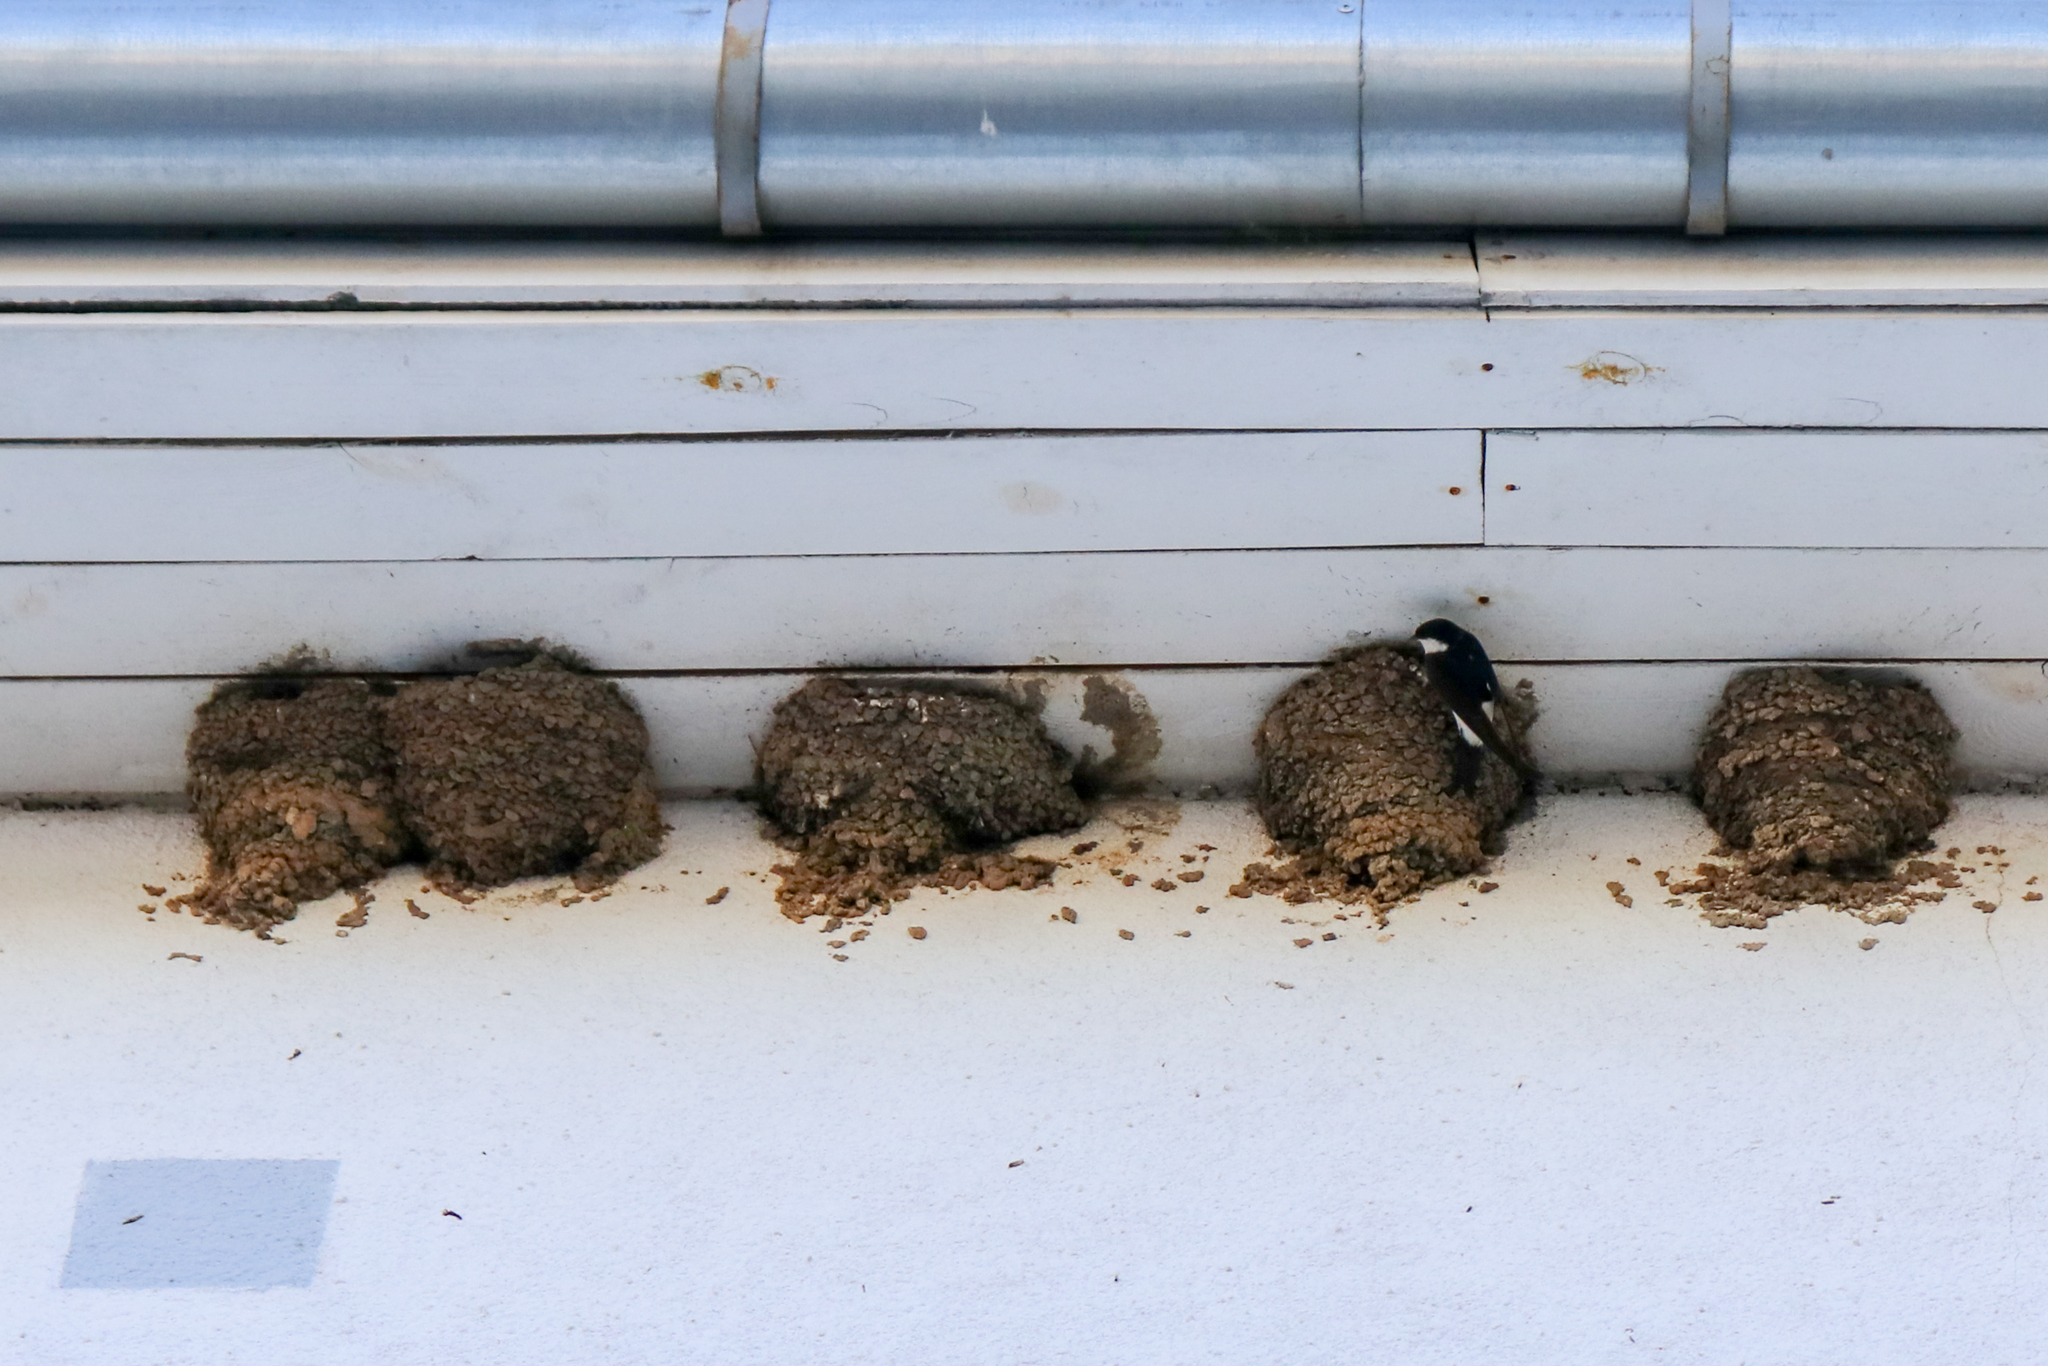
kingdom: Animalia
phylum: Chordata
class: Aves
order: Passeriformes
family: Hirundinidae
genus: Delichon
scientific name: Delichon urbicum
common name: Common house martin
